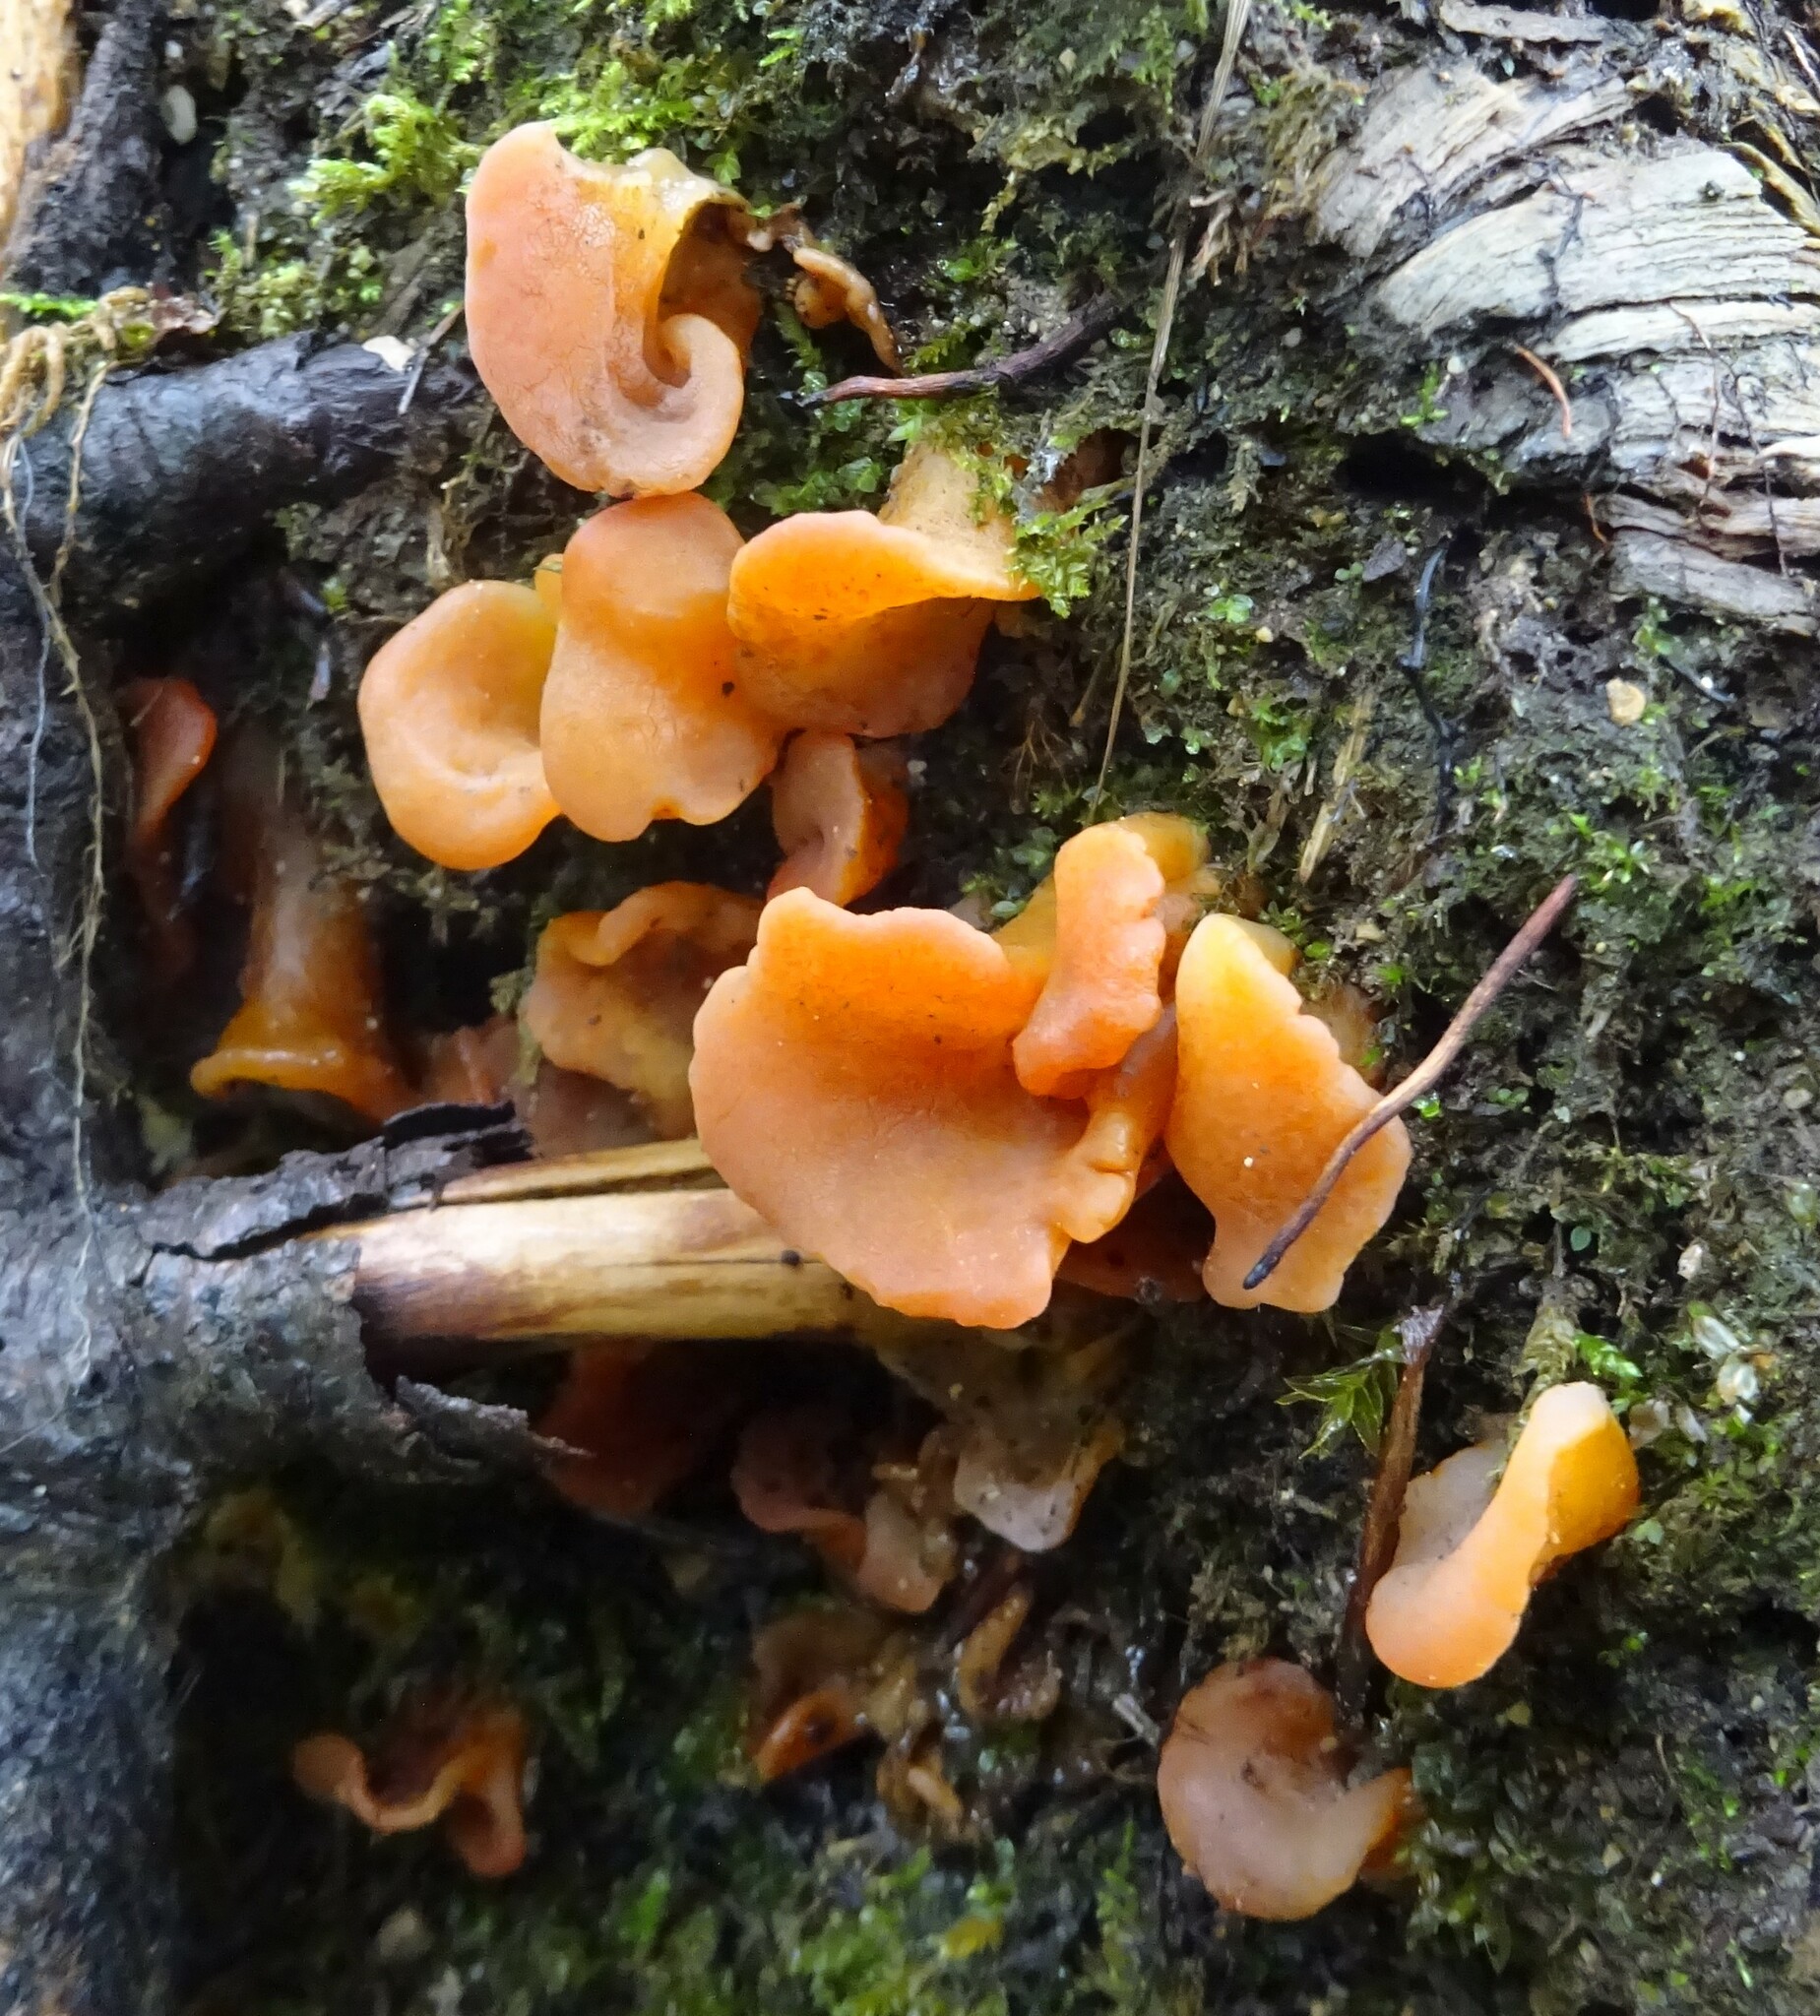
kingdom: Fungi
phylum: Basidiomycota
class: Agaricomycetes
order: Auriculariales
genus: Guepinia
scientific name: Guepinia helvelloides
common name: Salmon salad
